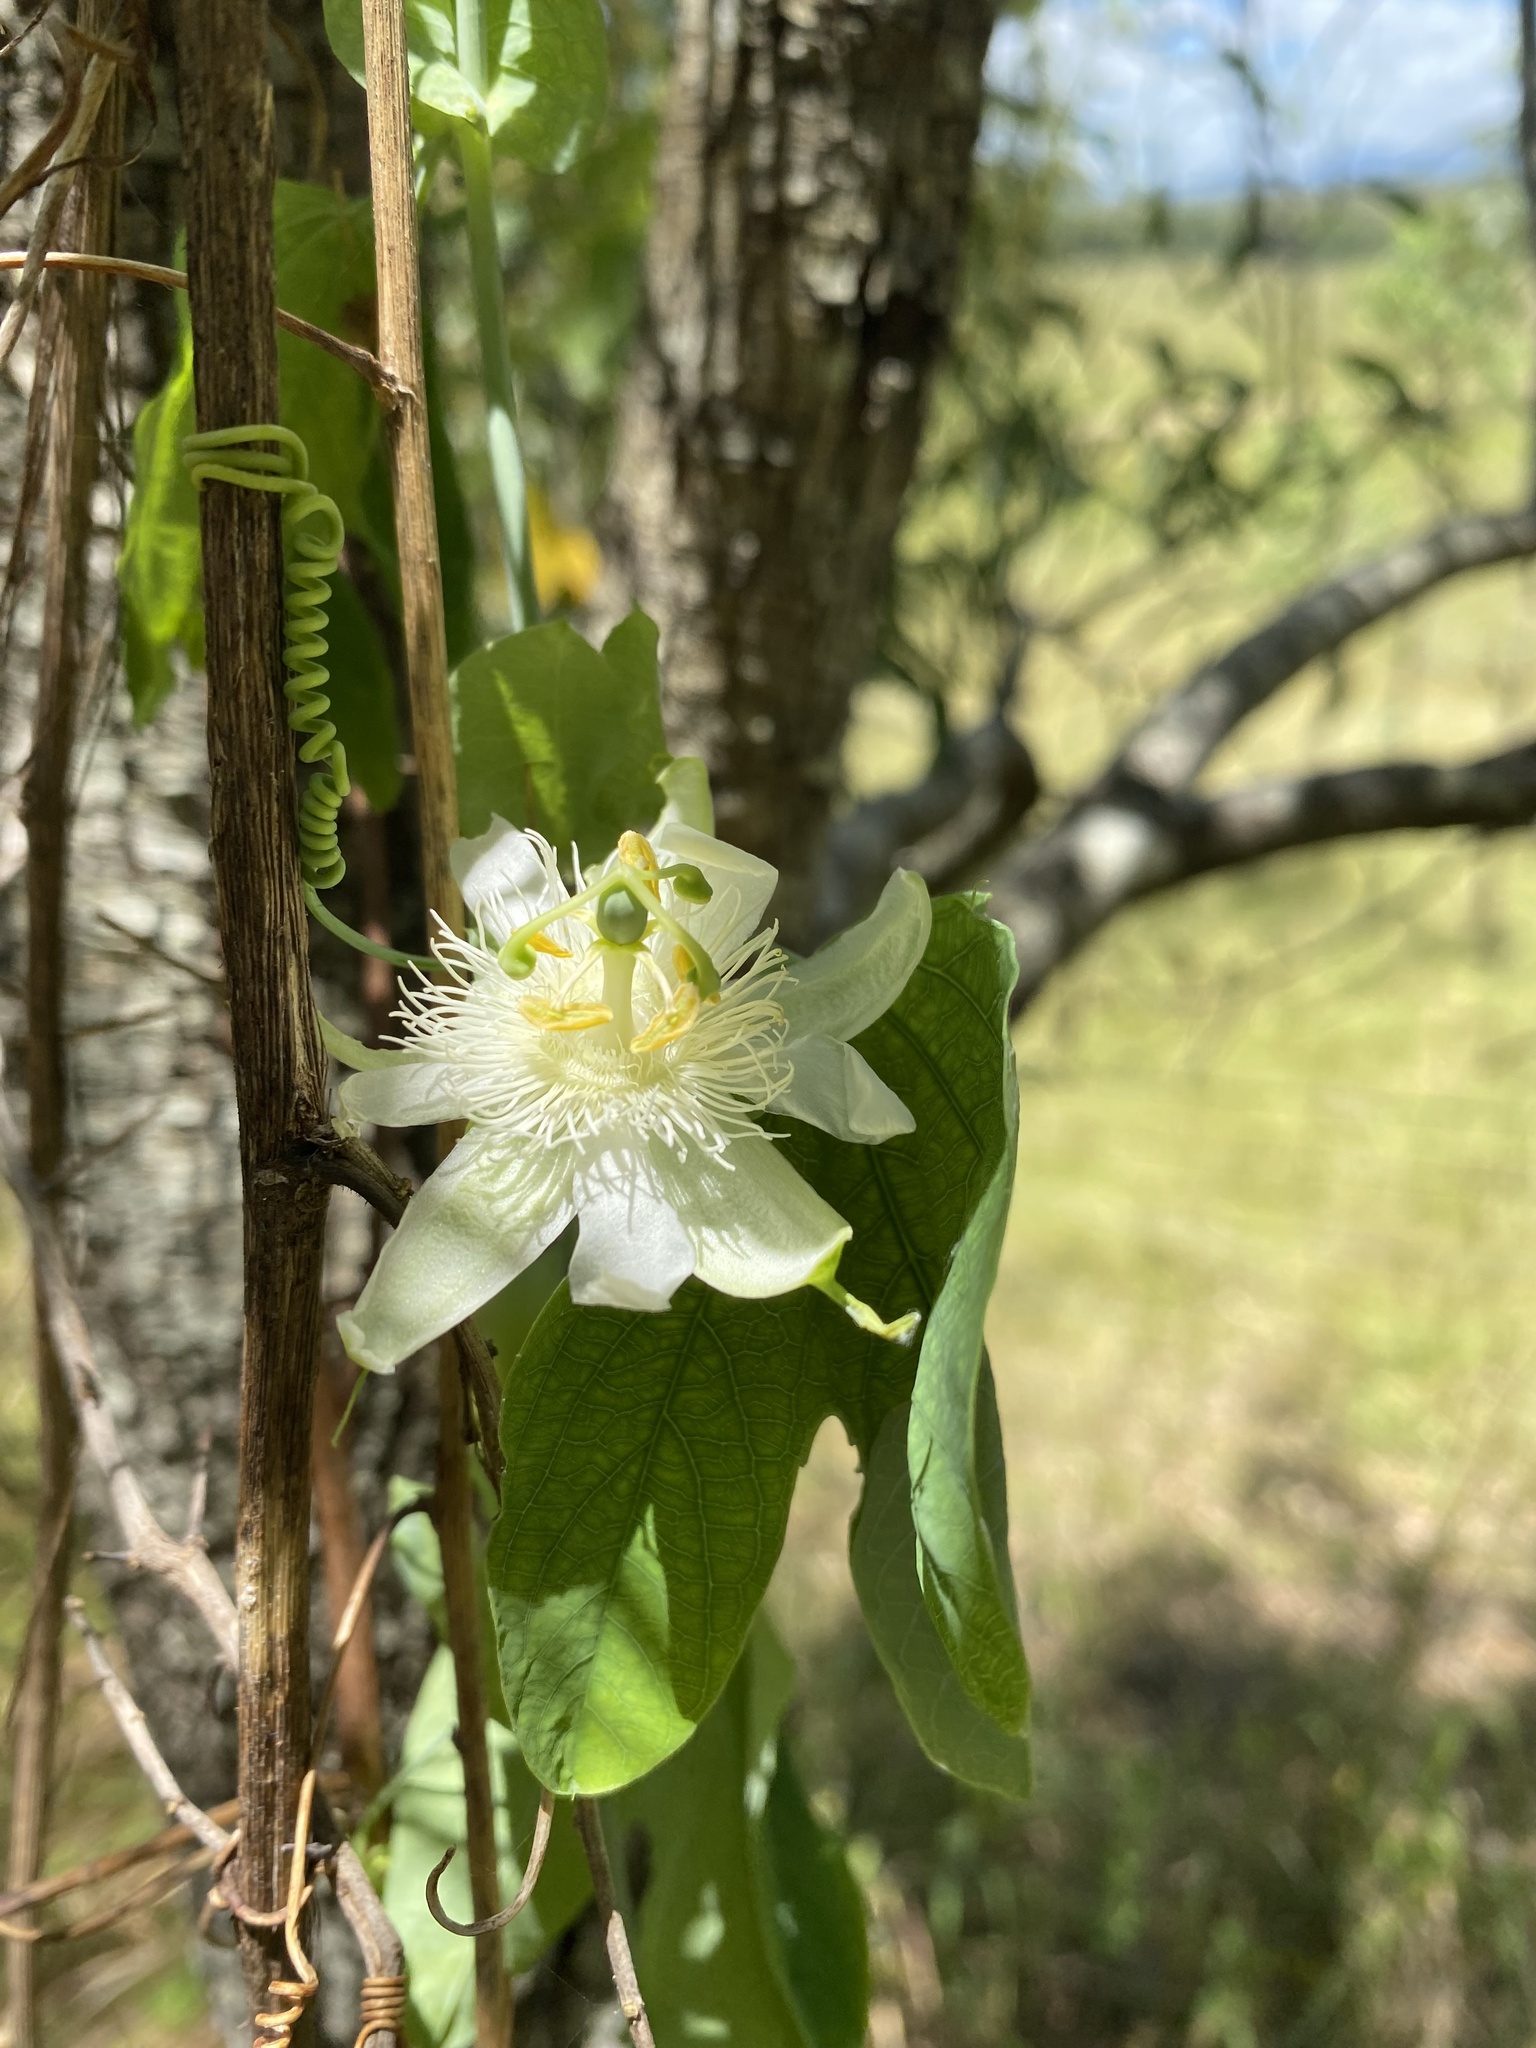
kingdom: Plantae
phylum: Tracheophyta
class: Magnoliopsida
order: Malpighiales
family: Passifloraceae
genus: Passiflora
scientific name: Passiflora subpeltata
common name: White passionflower
